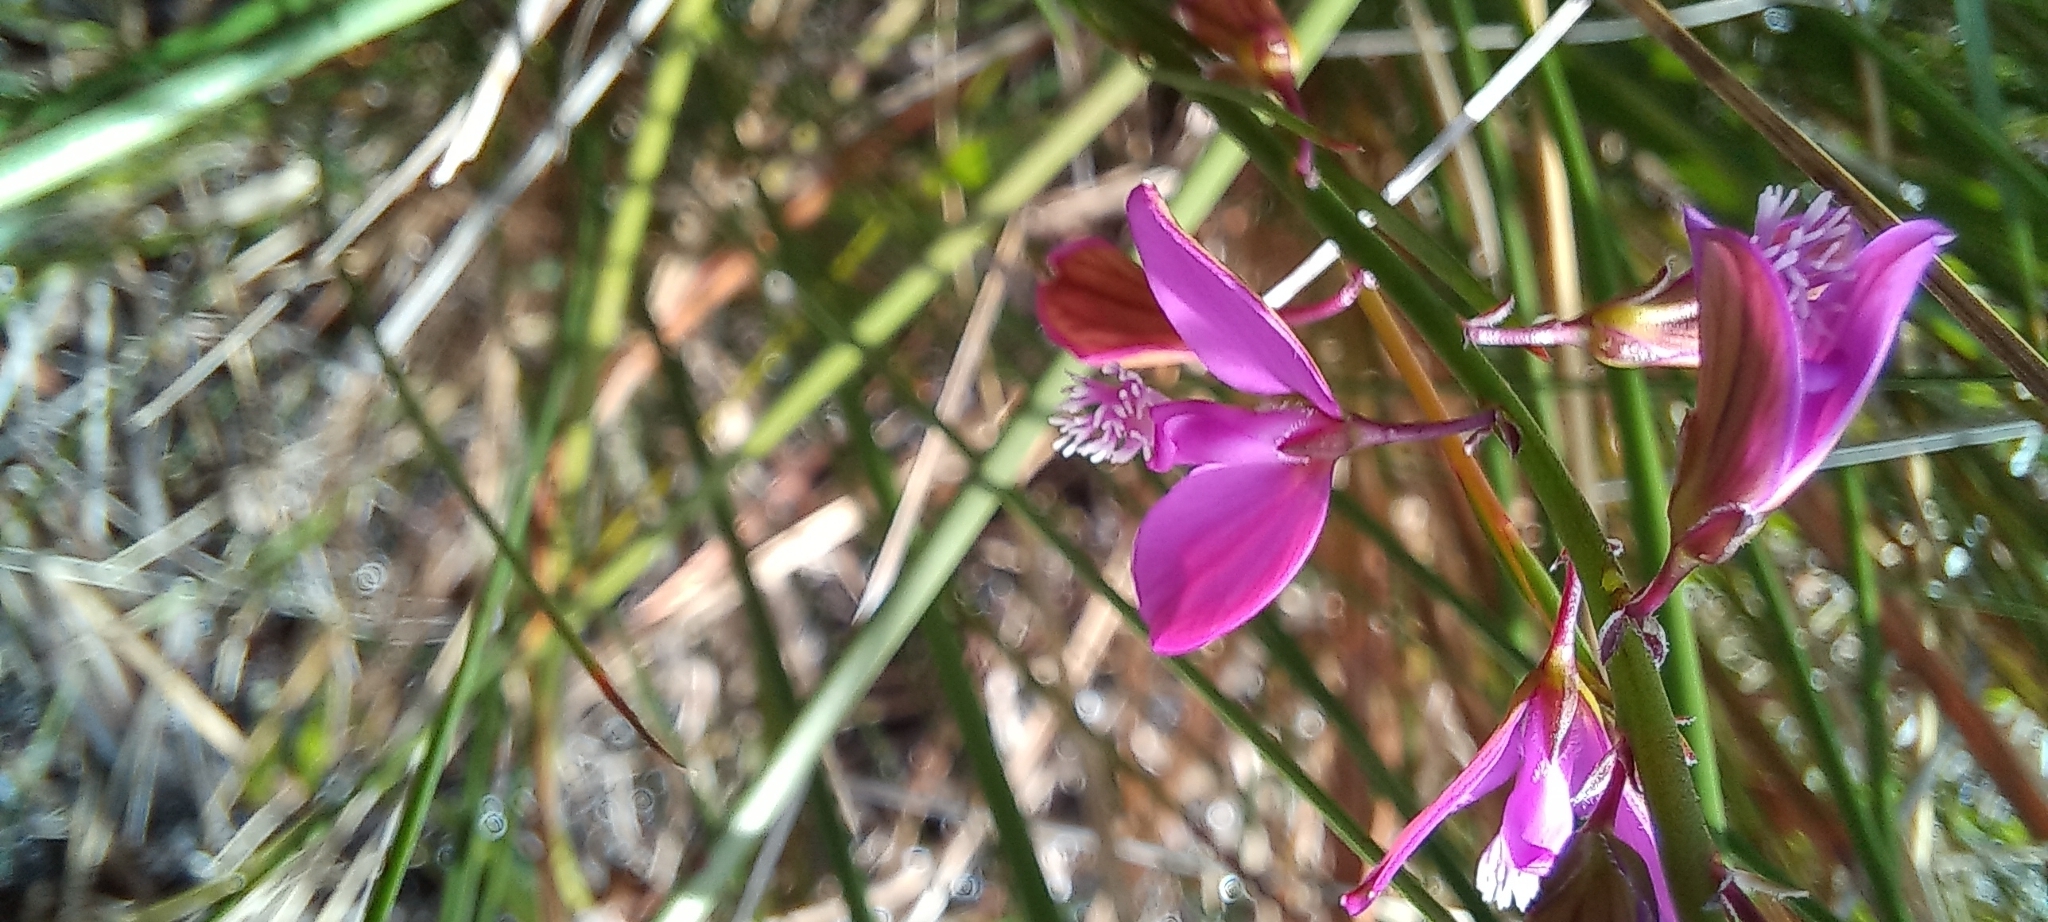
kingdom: Plantae
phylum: Tracheophyta
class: Magnoliopsida
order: Fabales
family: Polygalaceae
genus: Polygala
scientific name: Polygala garcini
